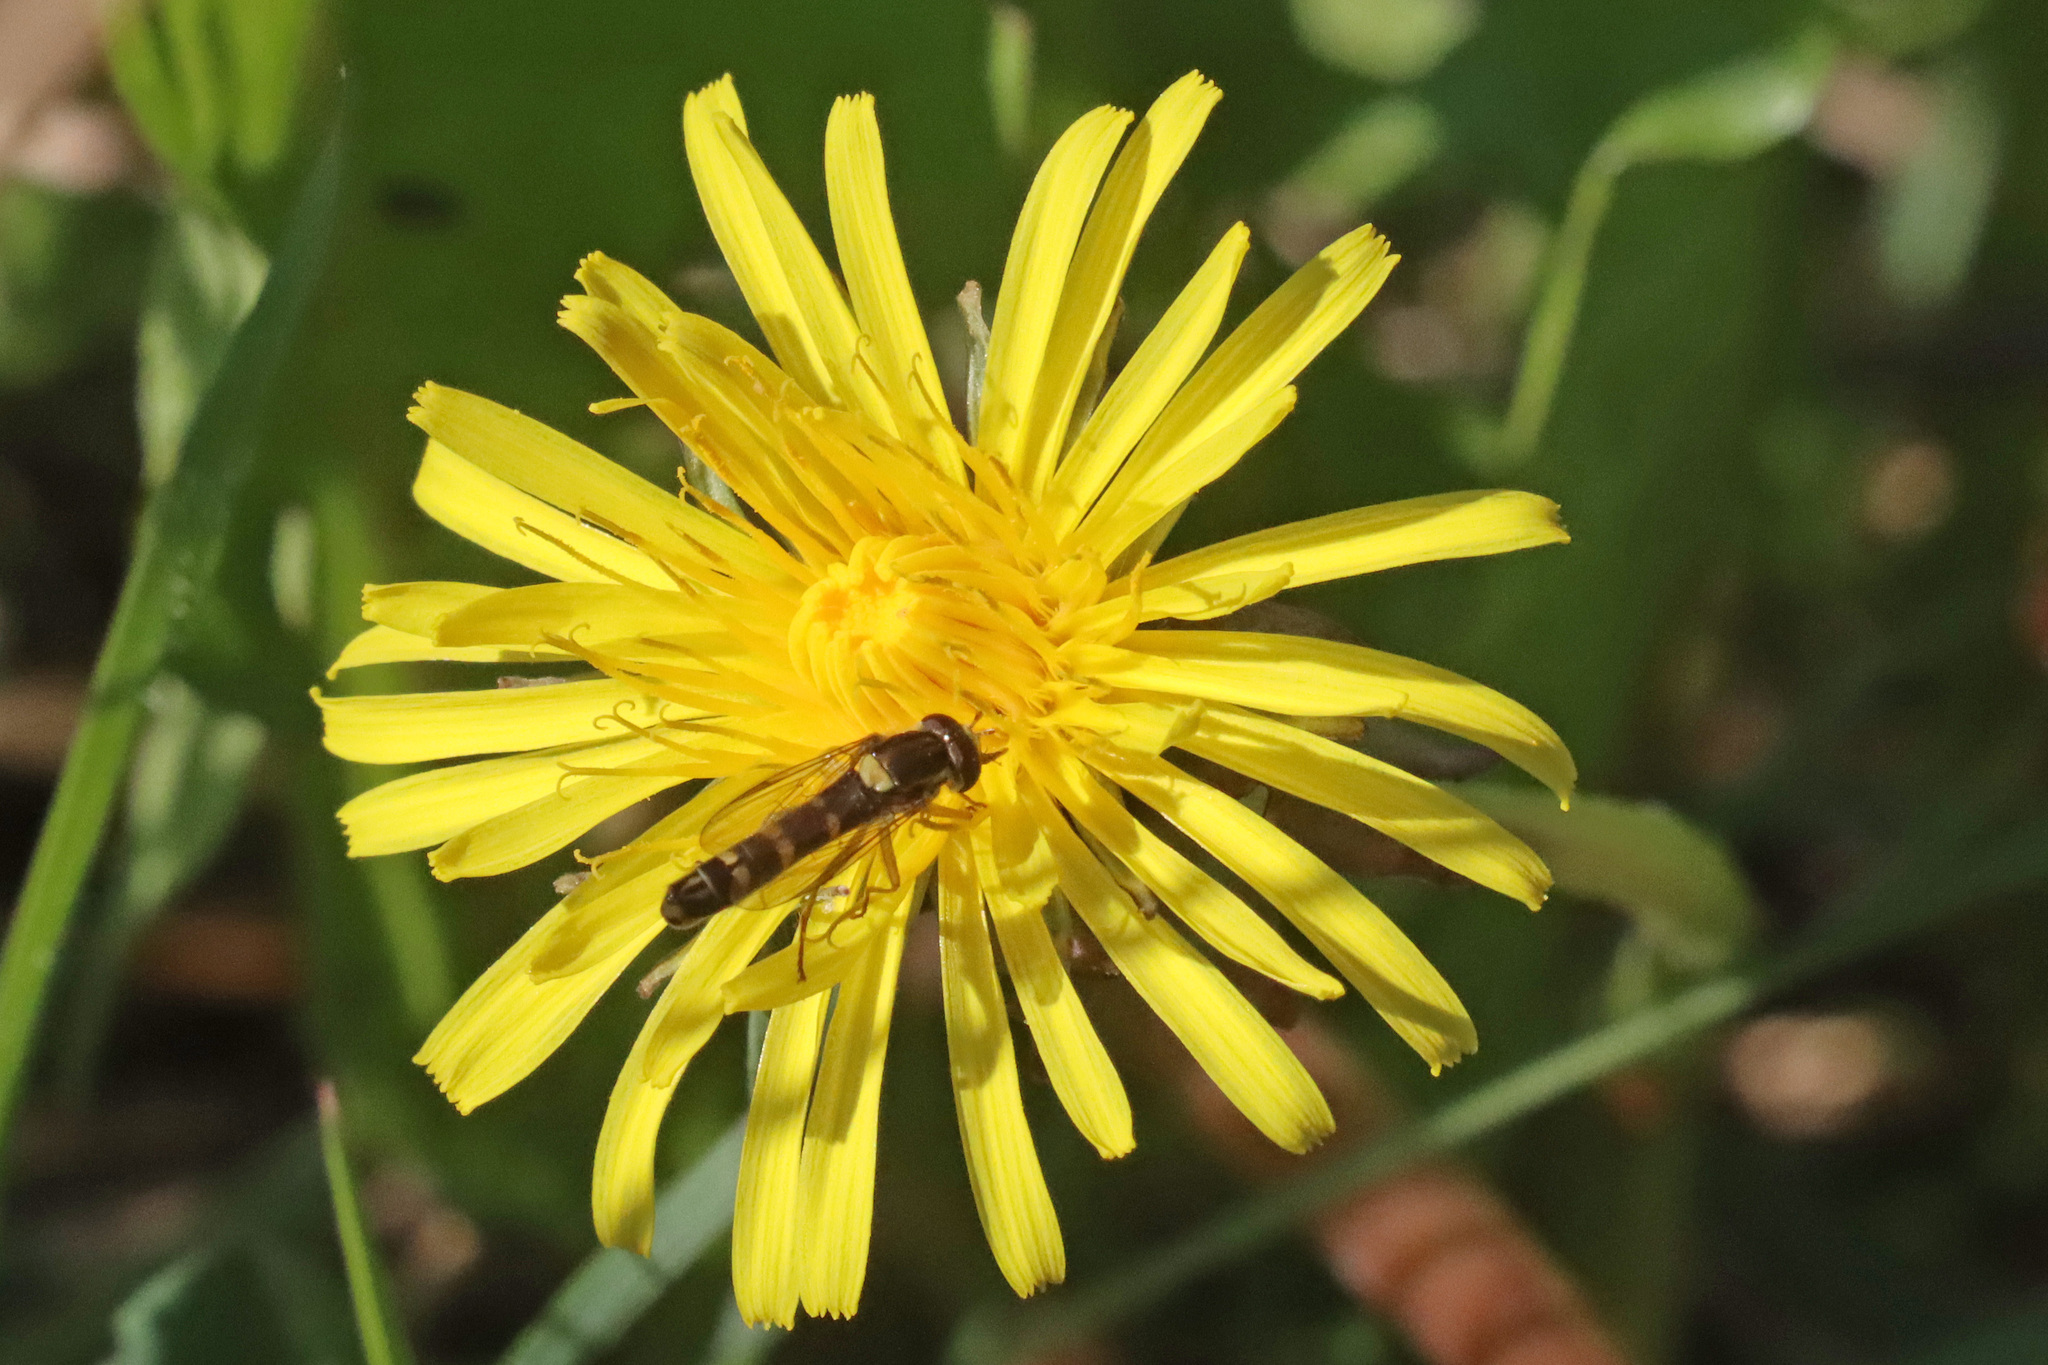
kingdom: Animalia
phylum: Arthropoda
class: Insecta
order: Diptera
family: Syrphidae
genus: Sphaerophoria
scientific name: Sphaerophoria scripta
